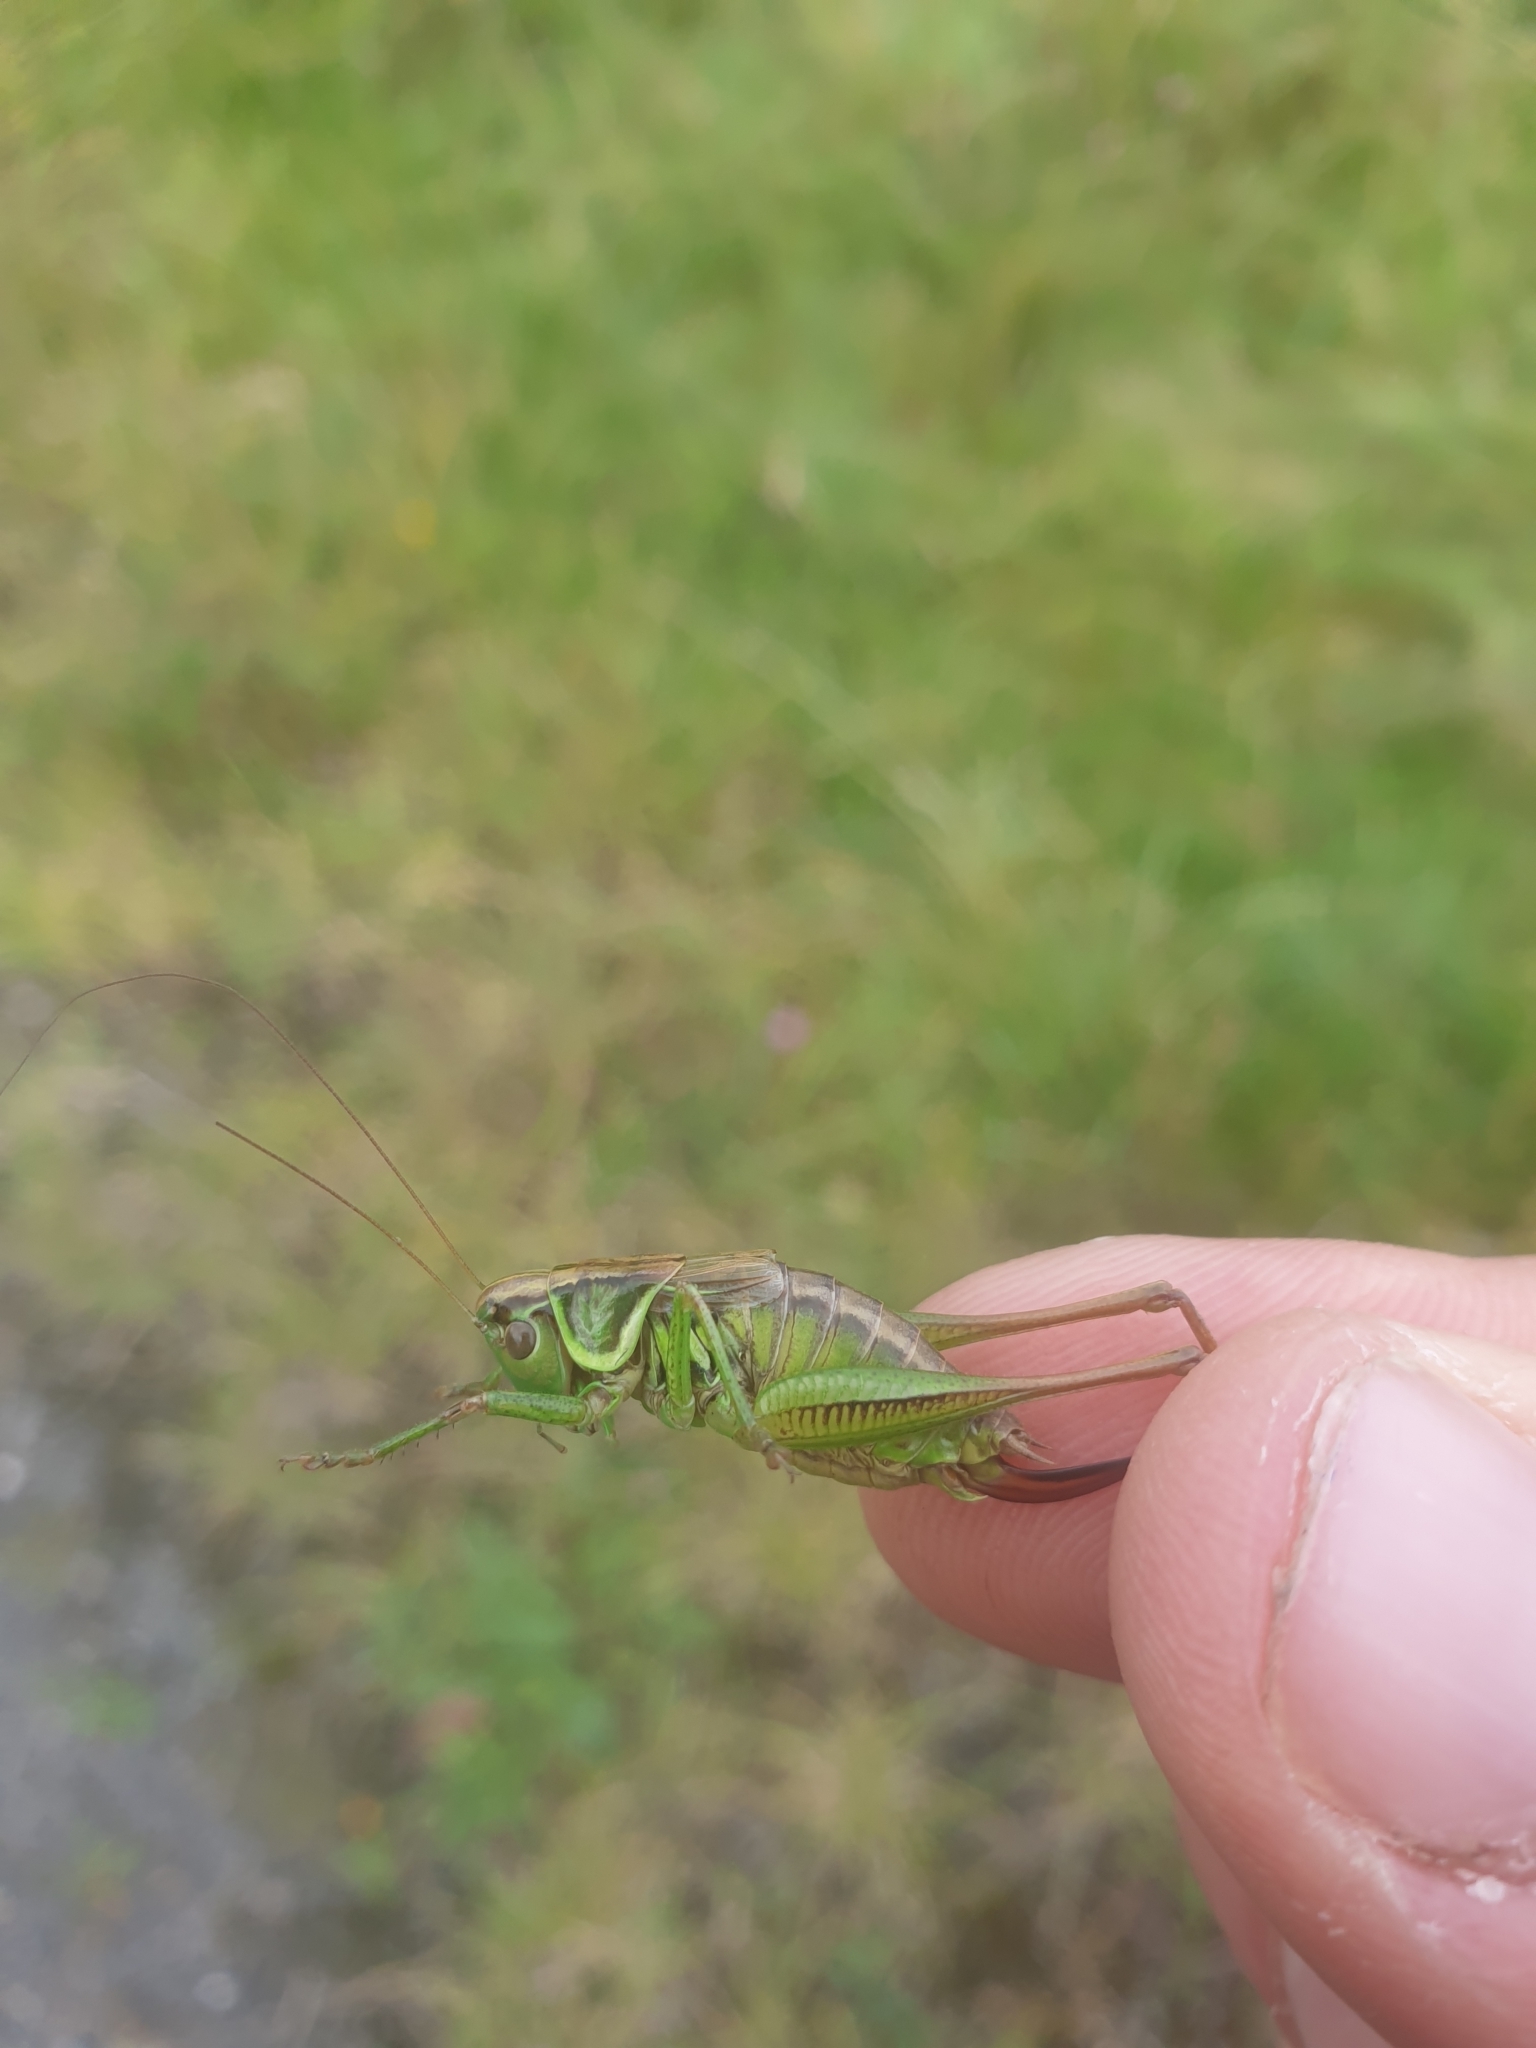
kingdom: Animalia
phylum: Arthropoda
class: Insecta
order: Orthoptera
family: Tettigoniidae
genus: Roeseliana
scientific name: Roeseliana roeselii
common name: Roesel's bush cricket
